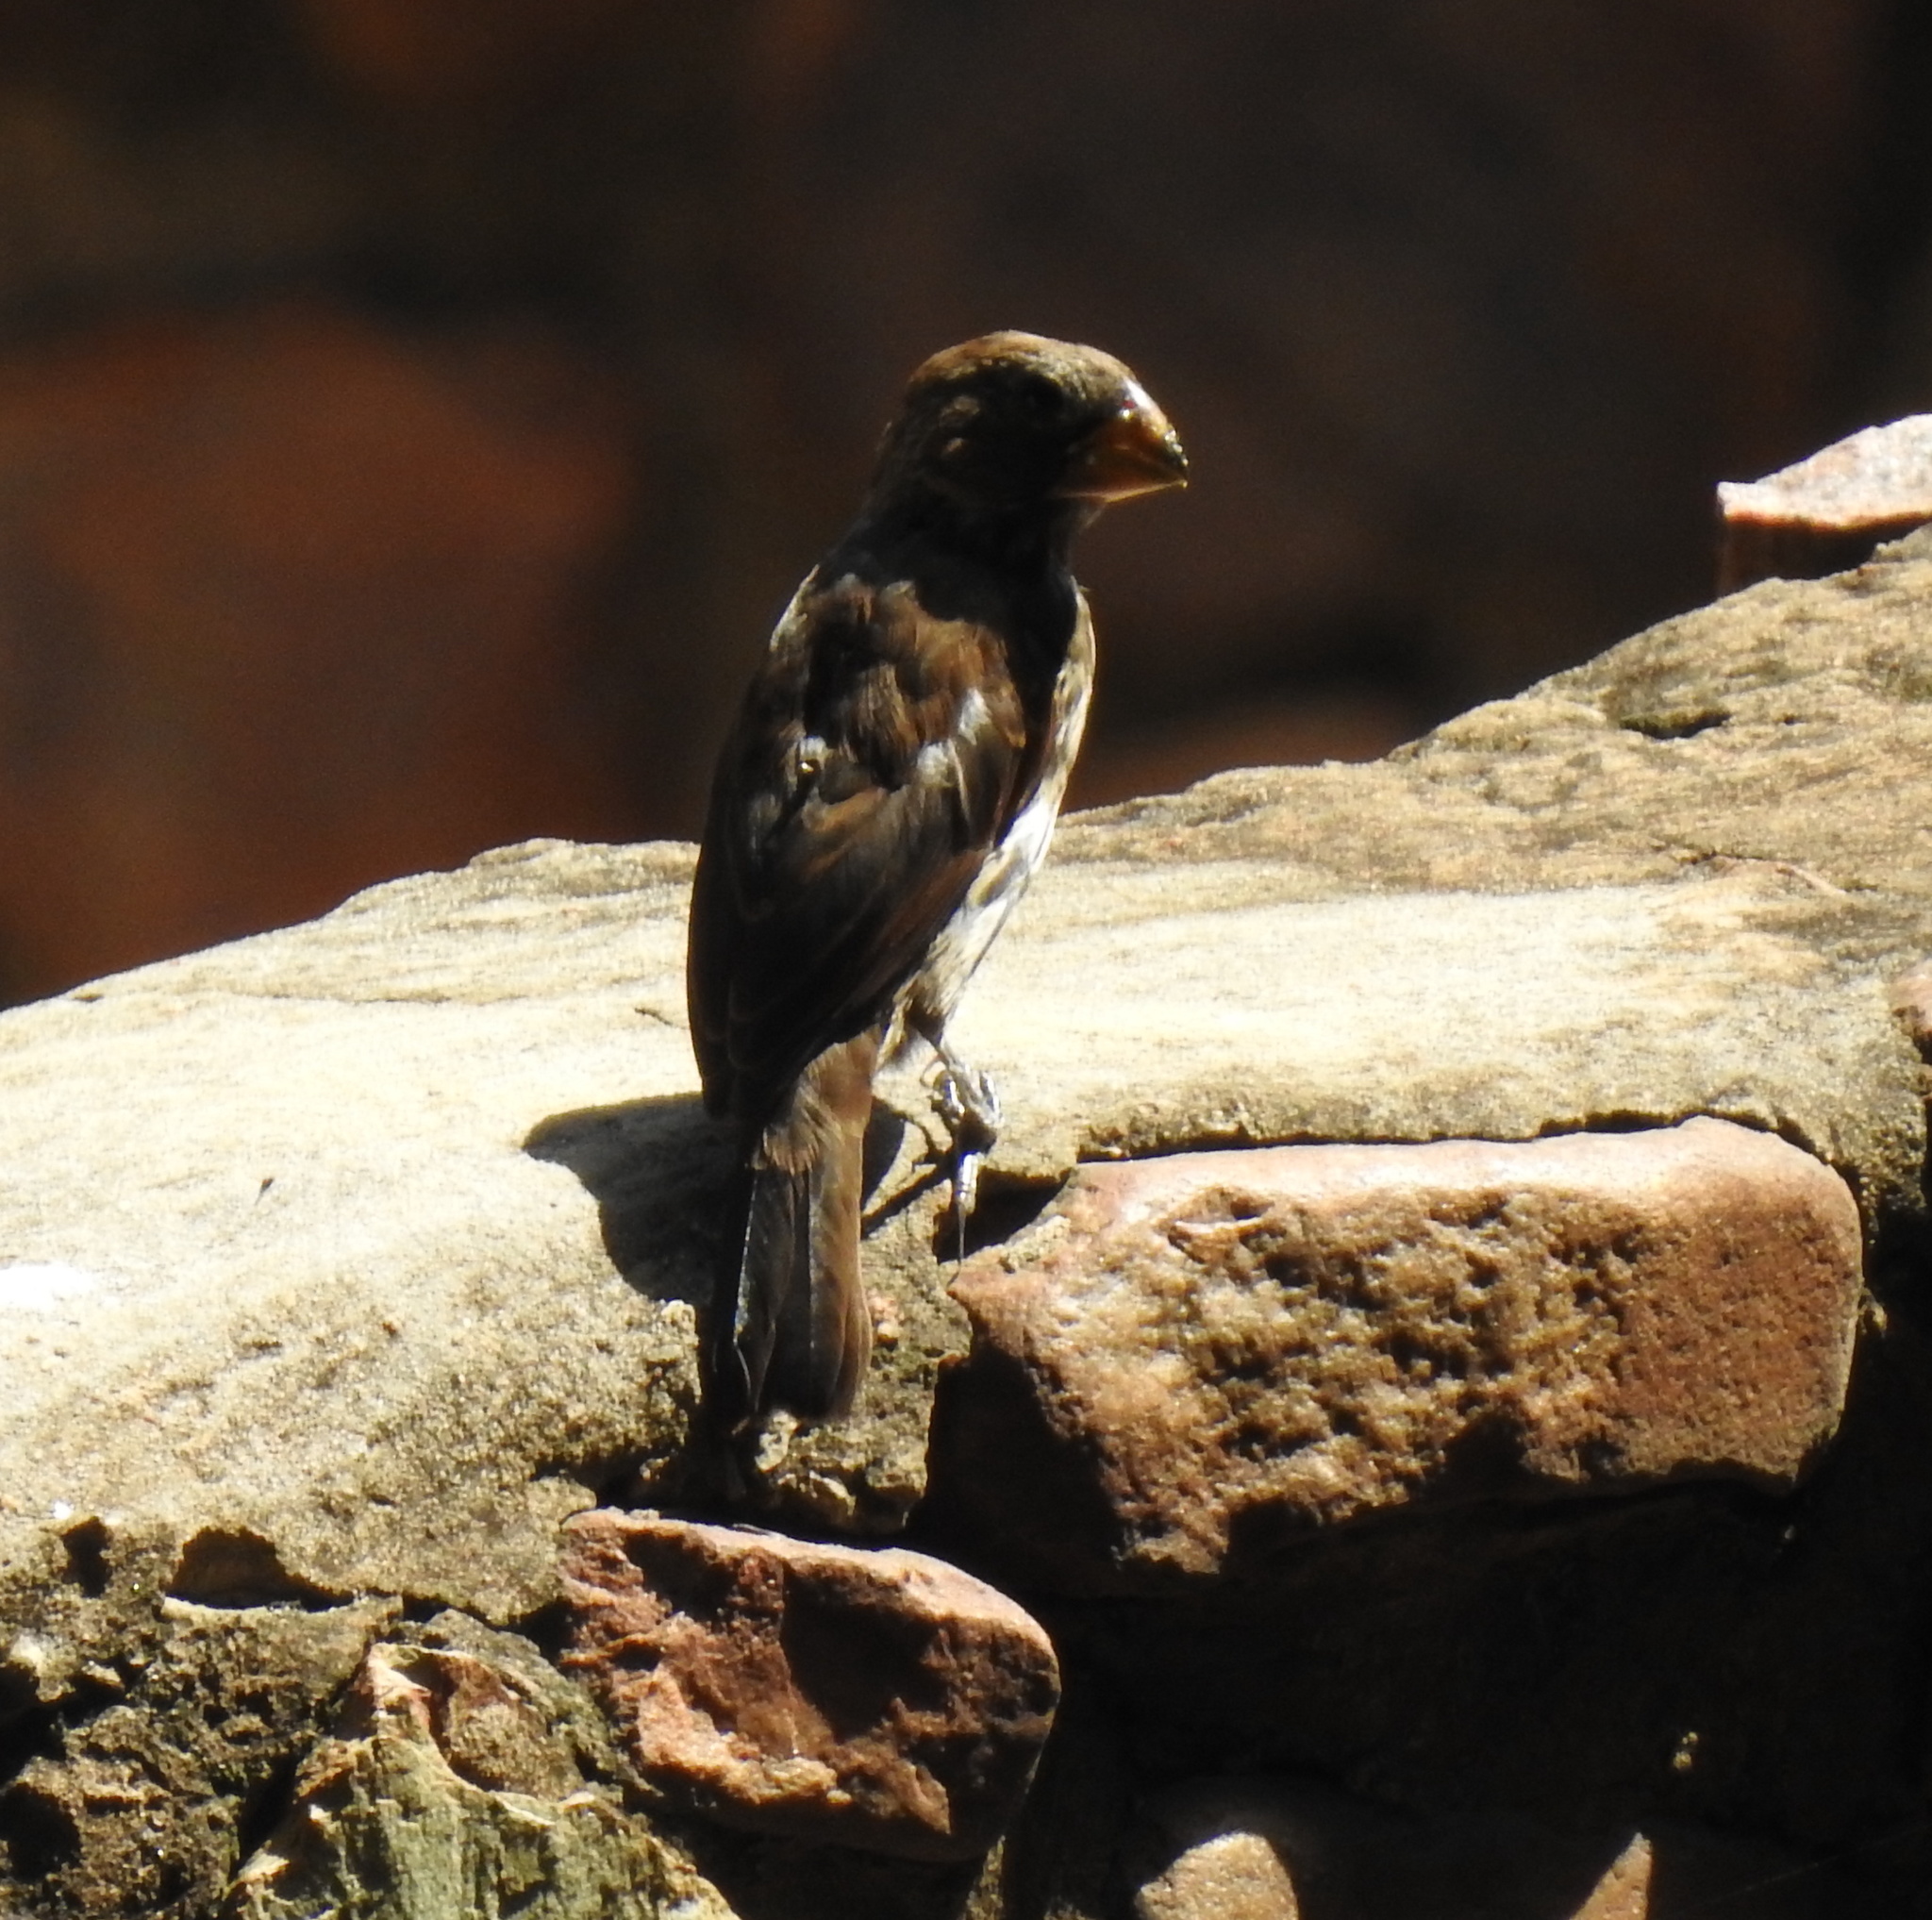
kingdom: Animalia
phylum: Chordata
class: Aves
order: Passeriformes
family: Ploceidae
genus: Amblyospiza
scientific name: Amblyospiza albifrons
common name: Thick-billed weaver
